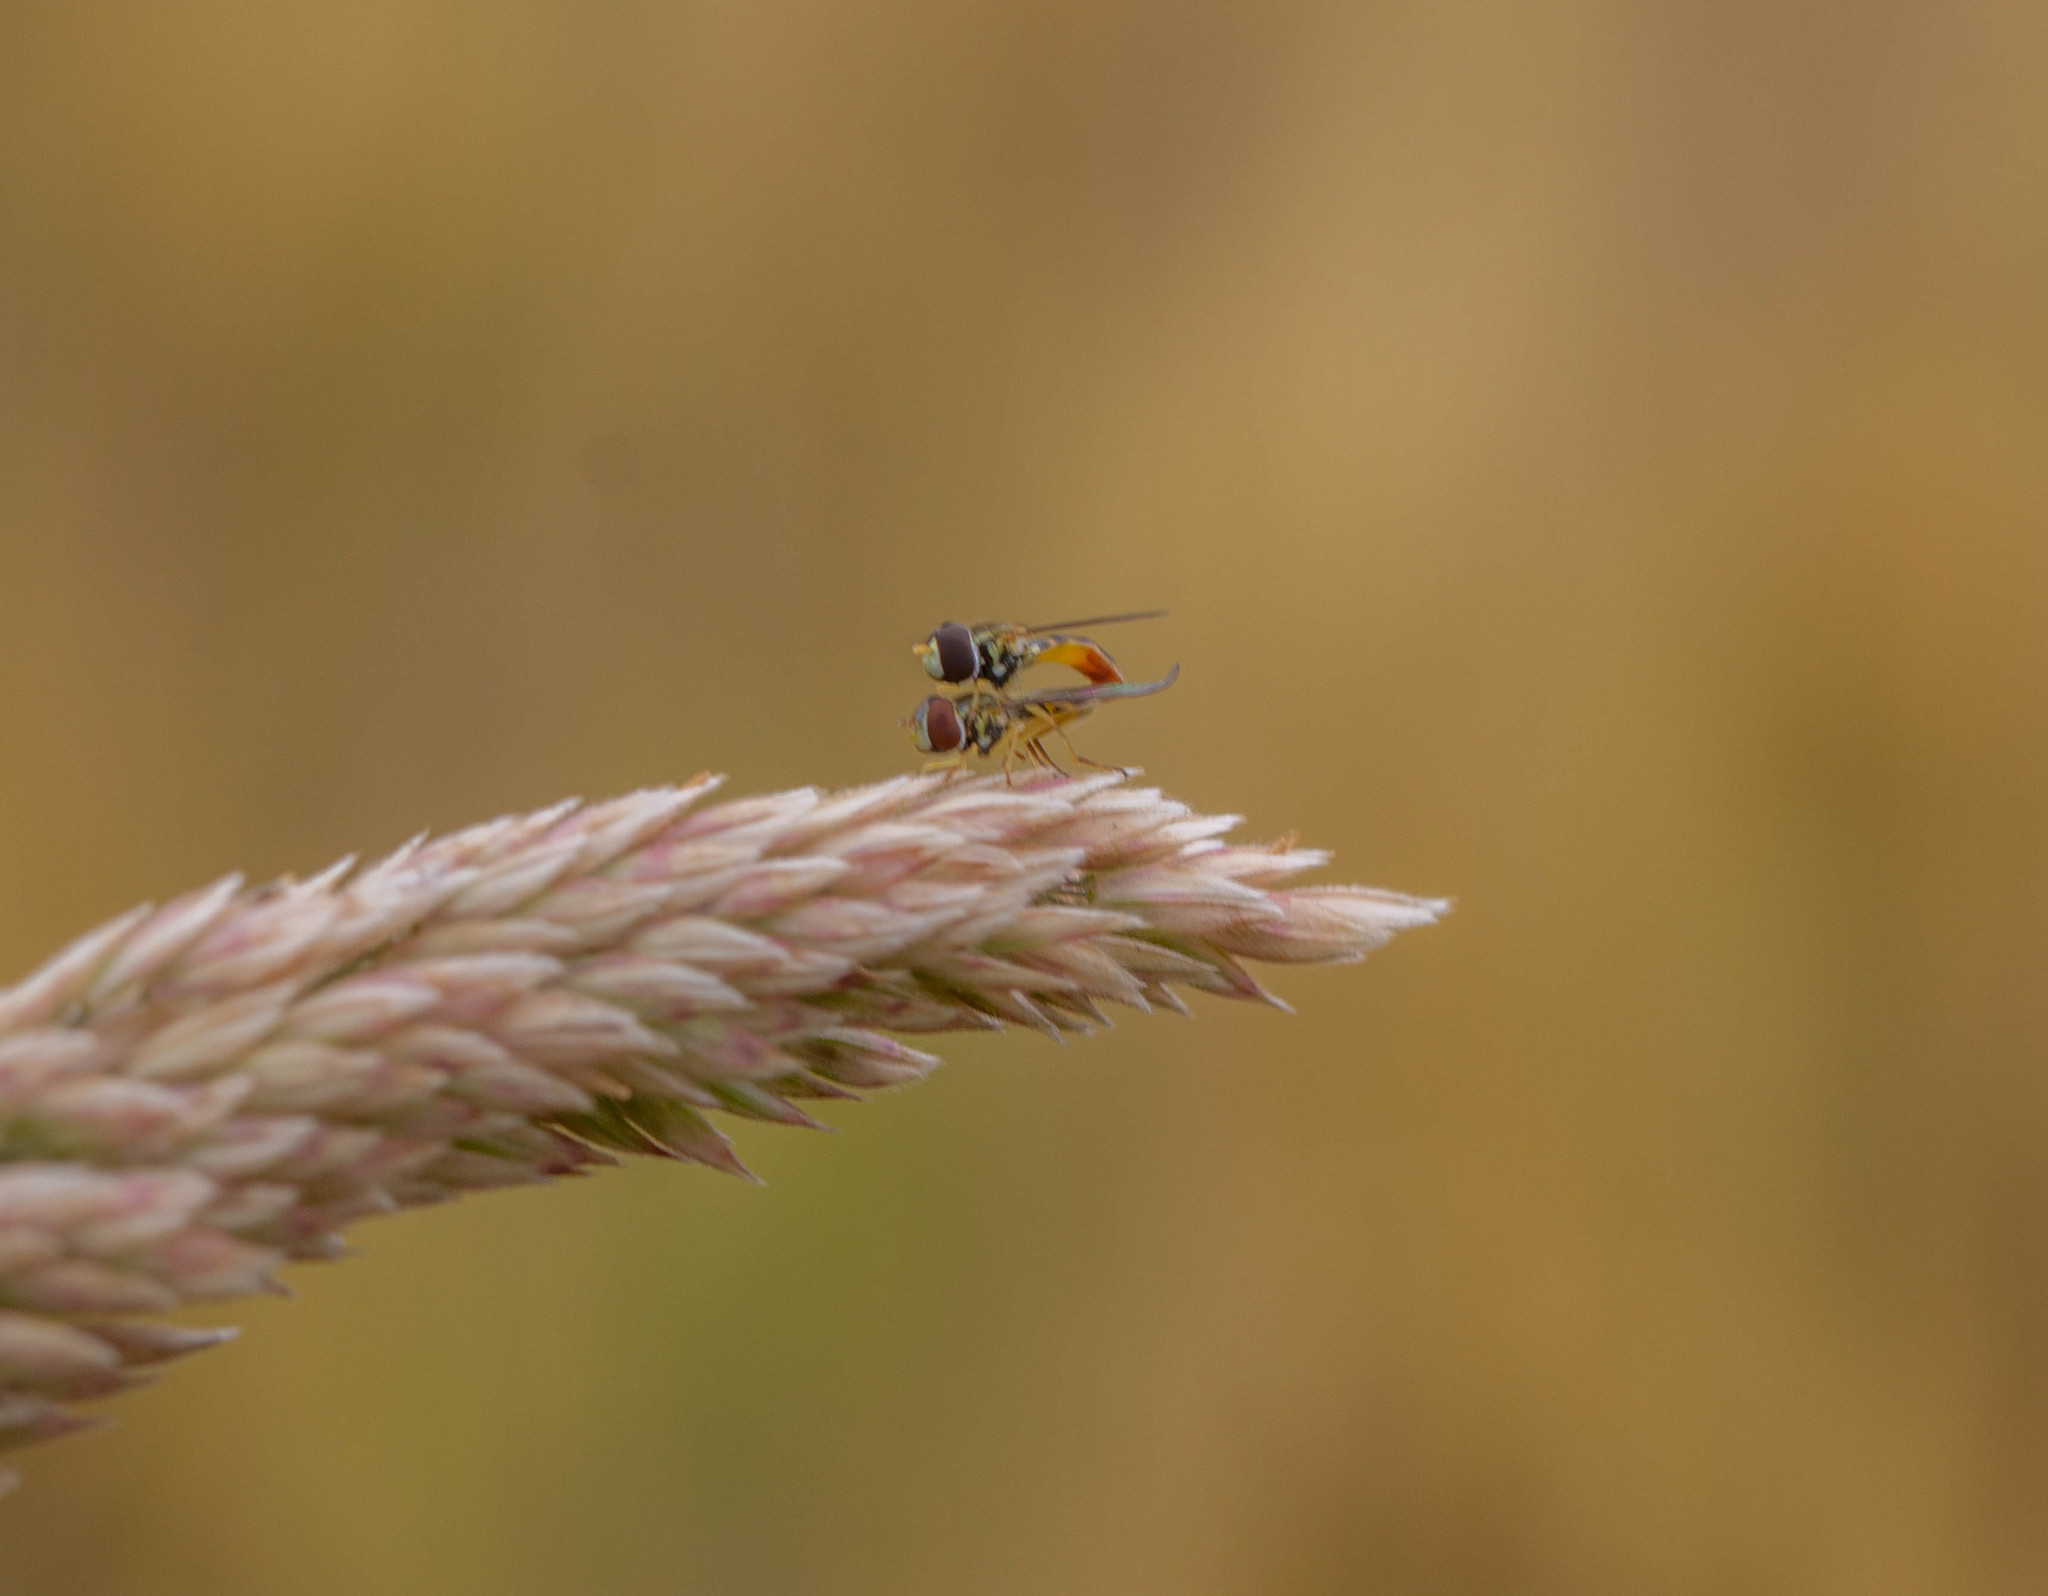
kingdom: Animalia
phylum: Arthropoda
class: Insecta
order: Diptera
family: Syrphidae
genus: Toxomerus
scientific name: Toxomerus
